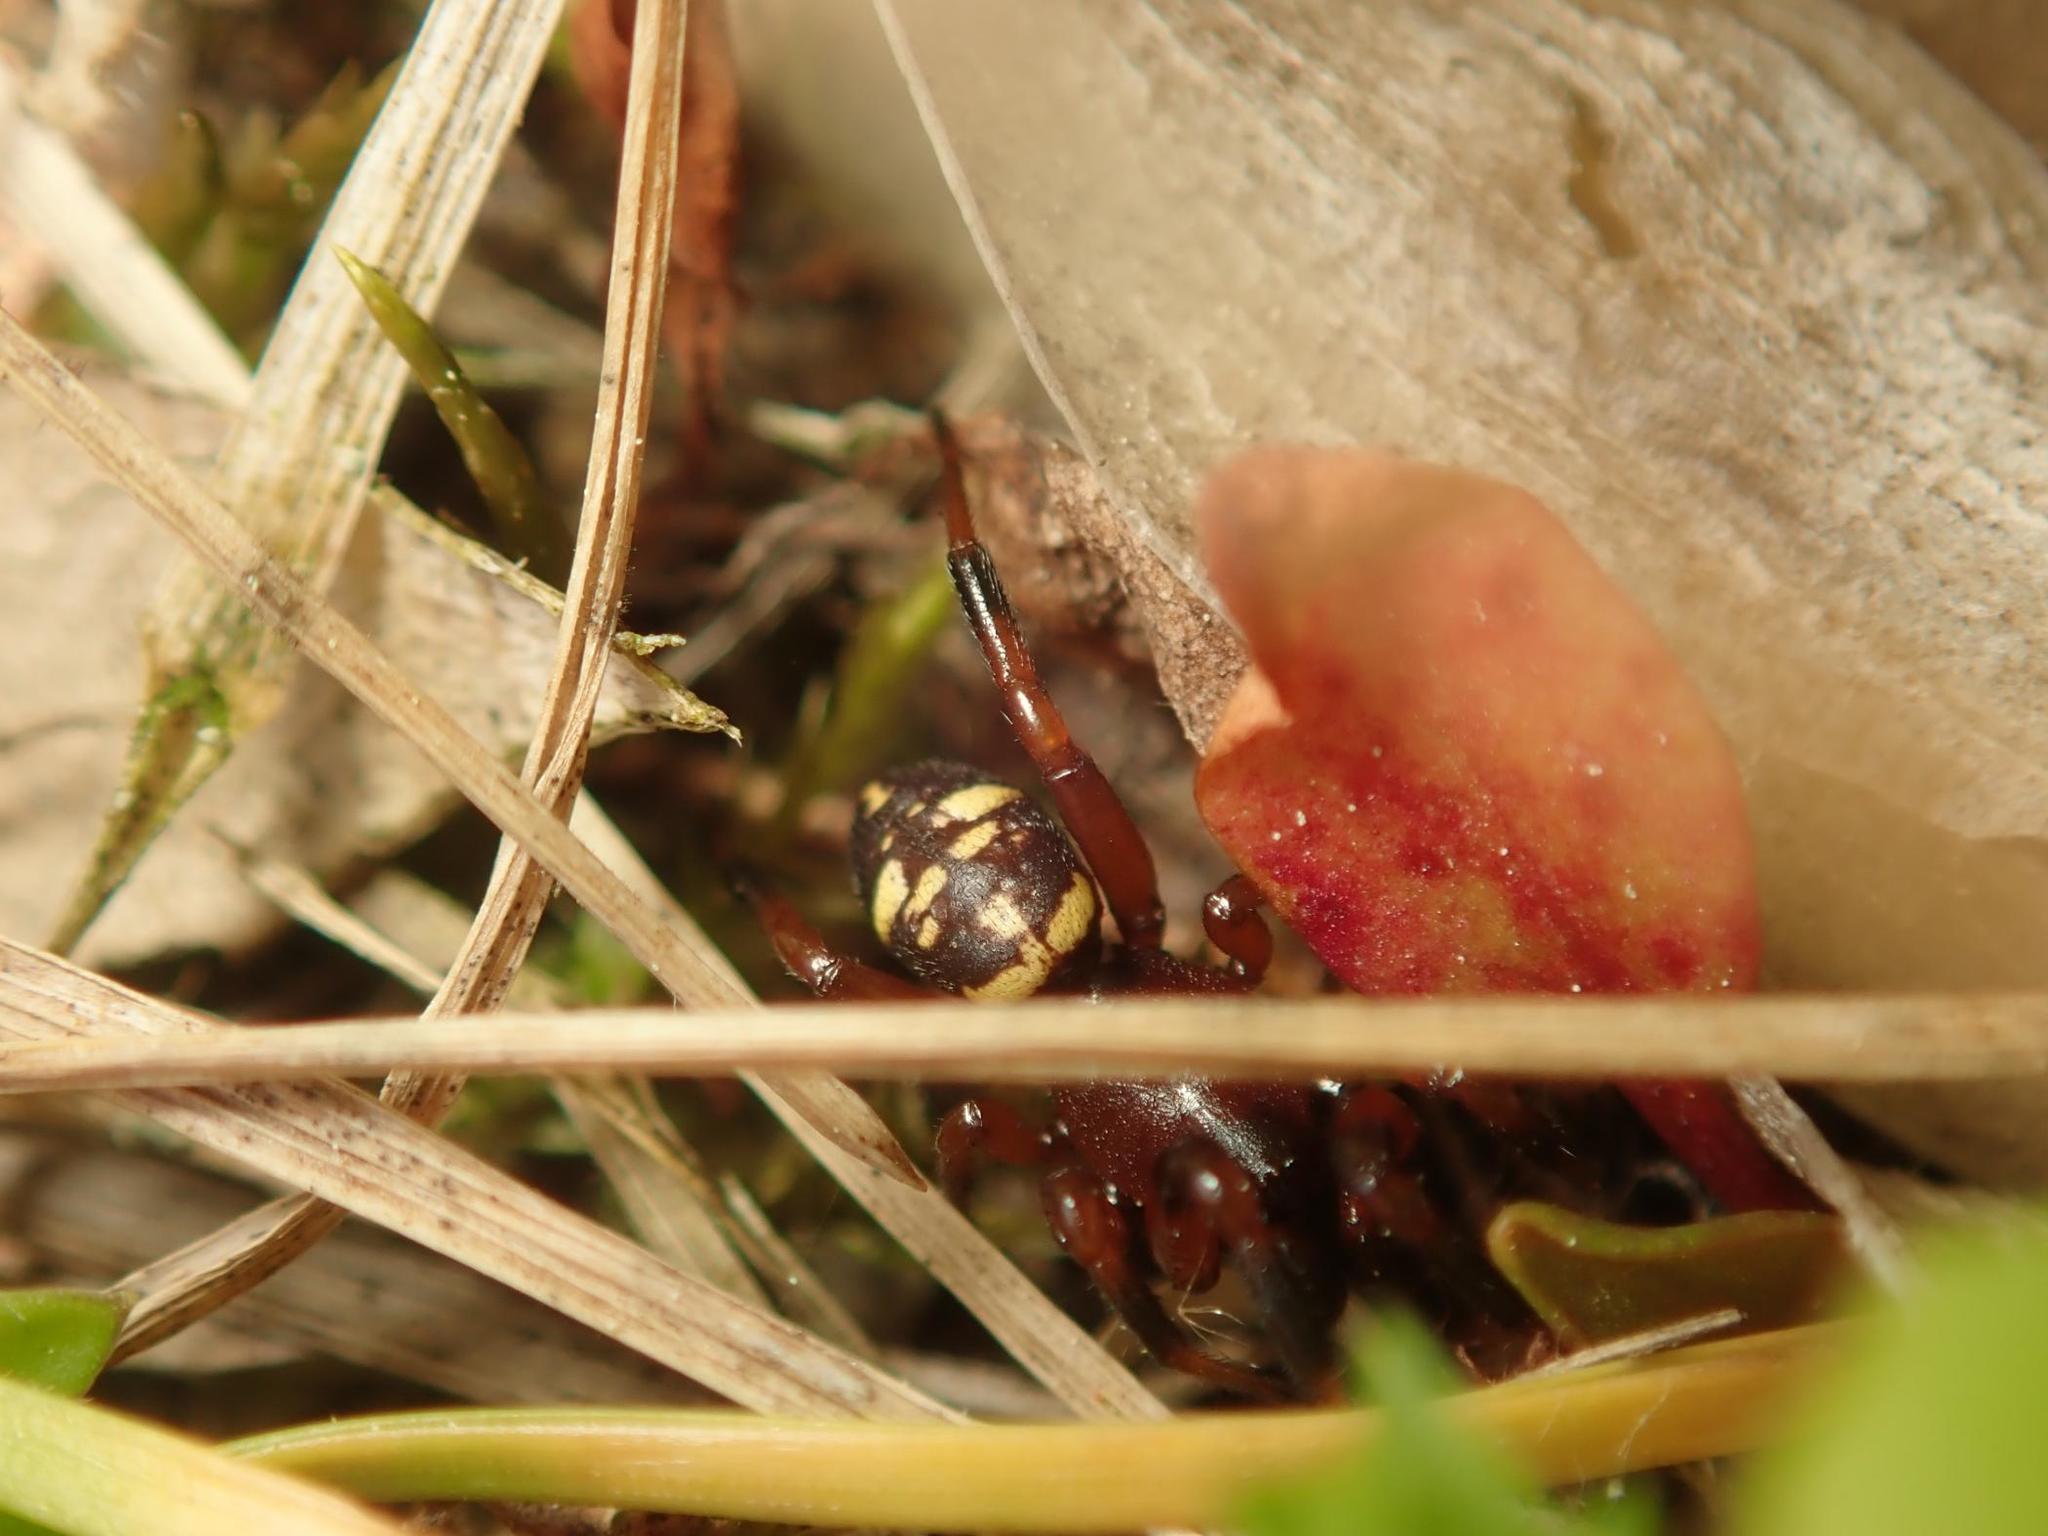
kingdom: Animalia
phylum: Arthropoda
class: Arachnida
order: Araneae
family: Theridiidae
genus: Asagena
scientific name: Asagena phalerata
